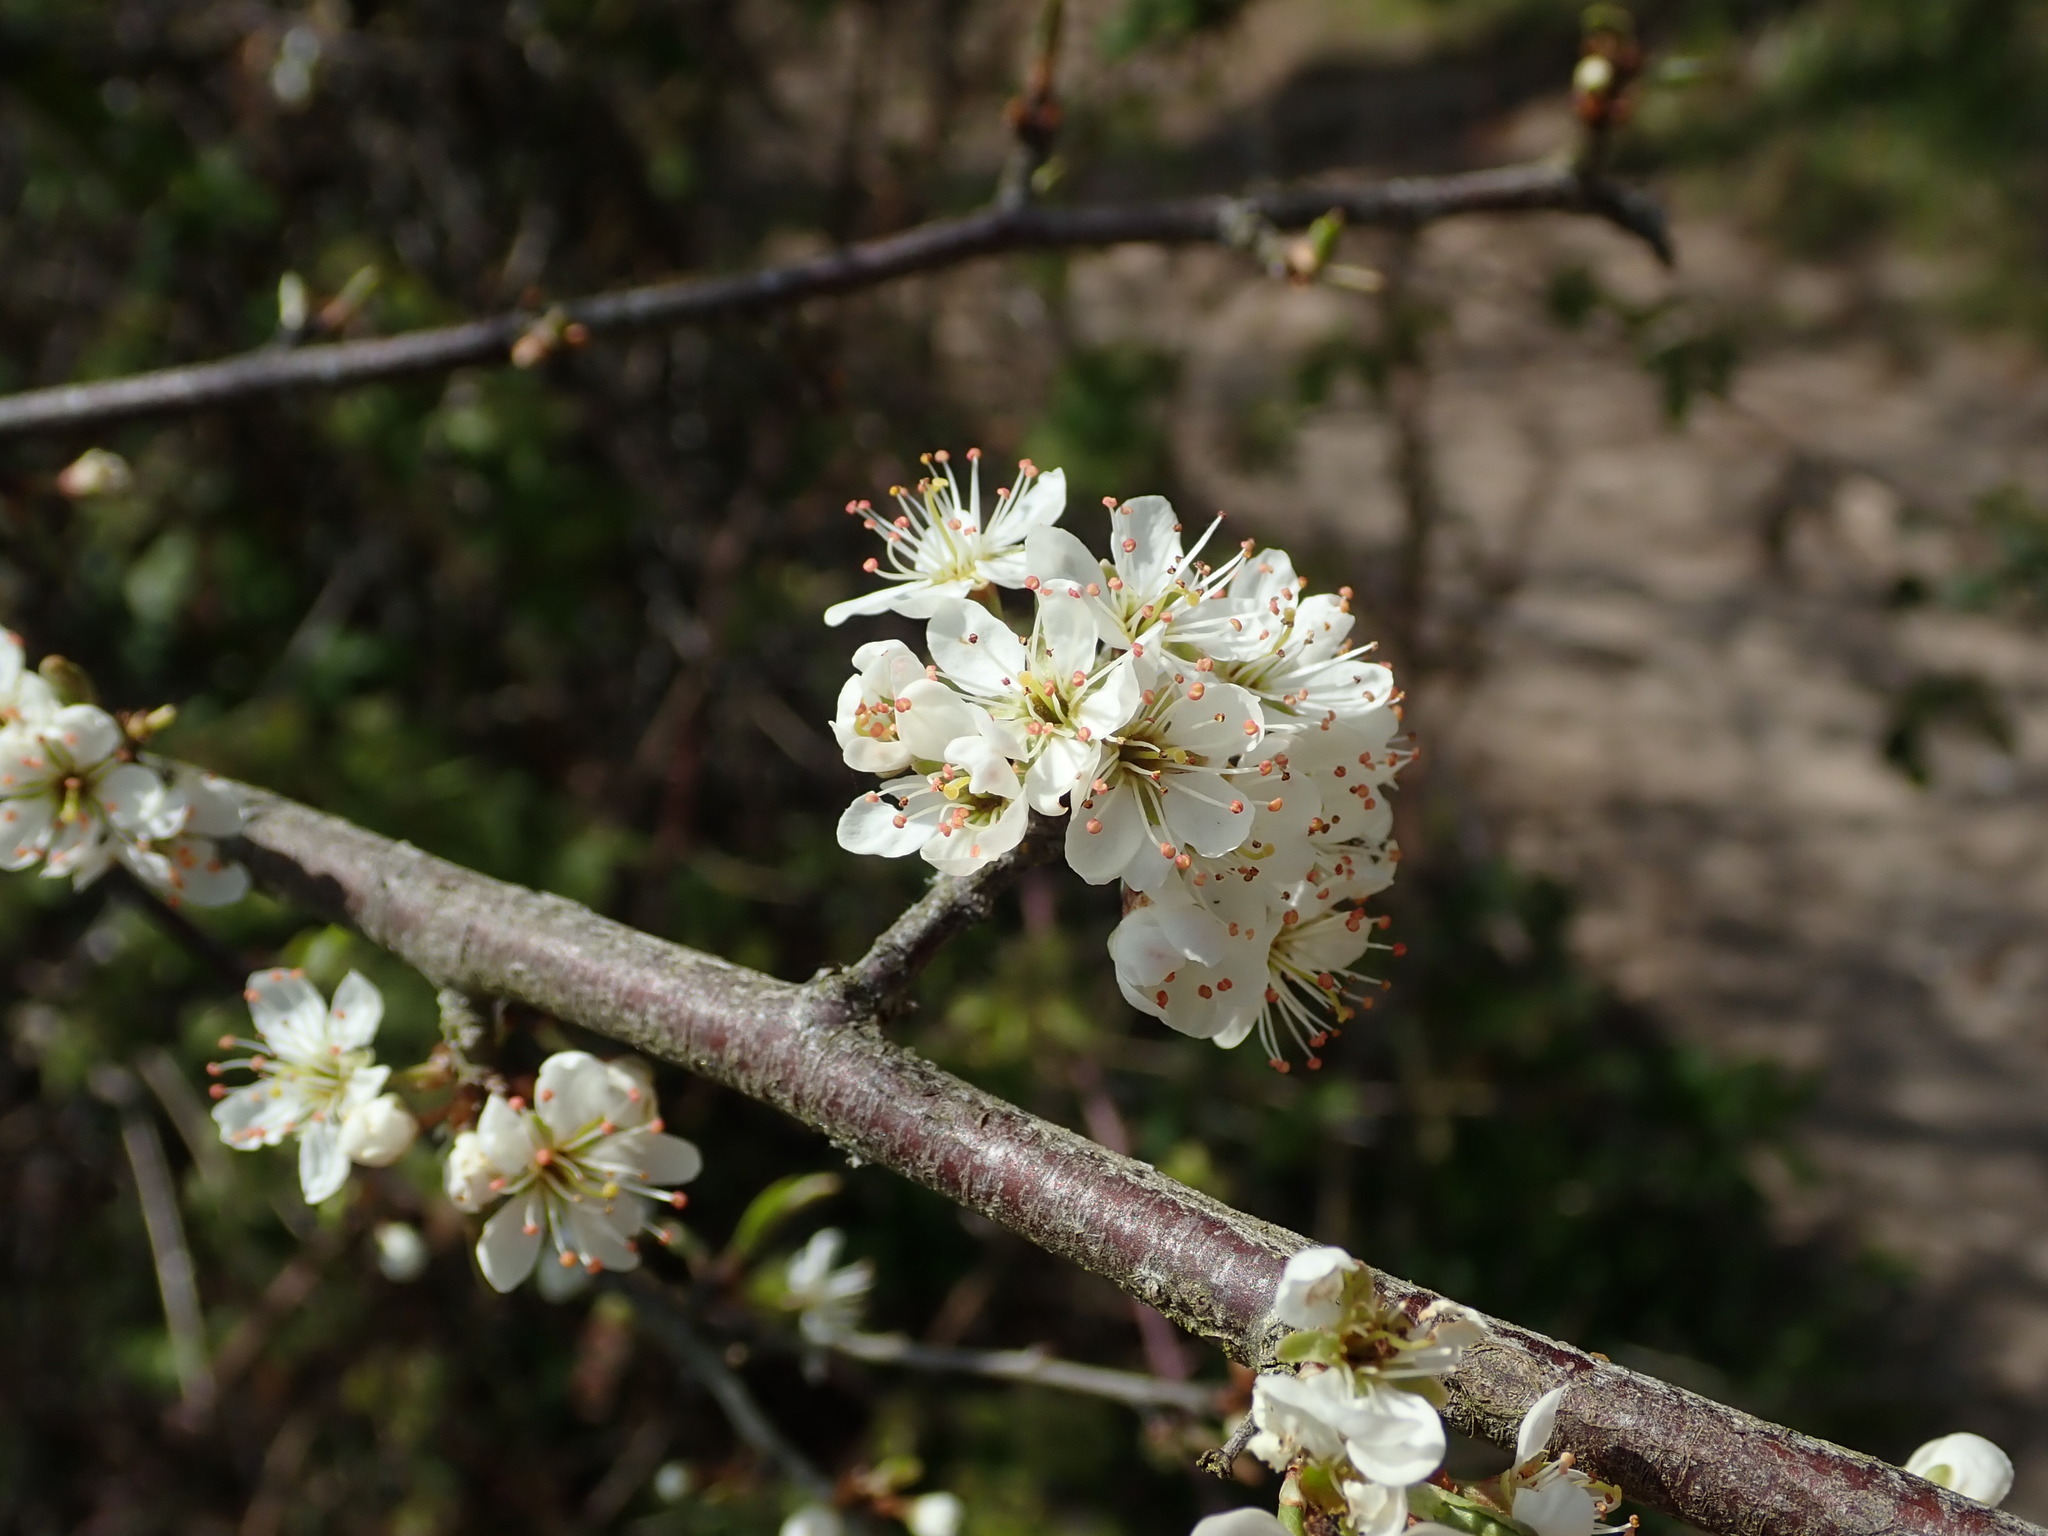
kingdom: Plantae
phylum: Tracheophyta
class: Magnoliopsida
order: Rosales
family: Rosaceae
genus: Prunus
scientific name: Prunus spinosa
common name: Blackthorn
